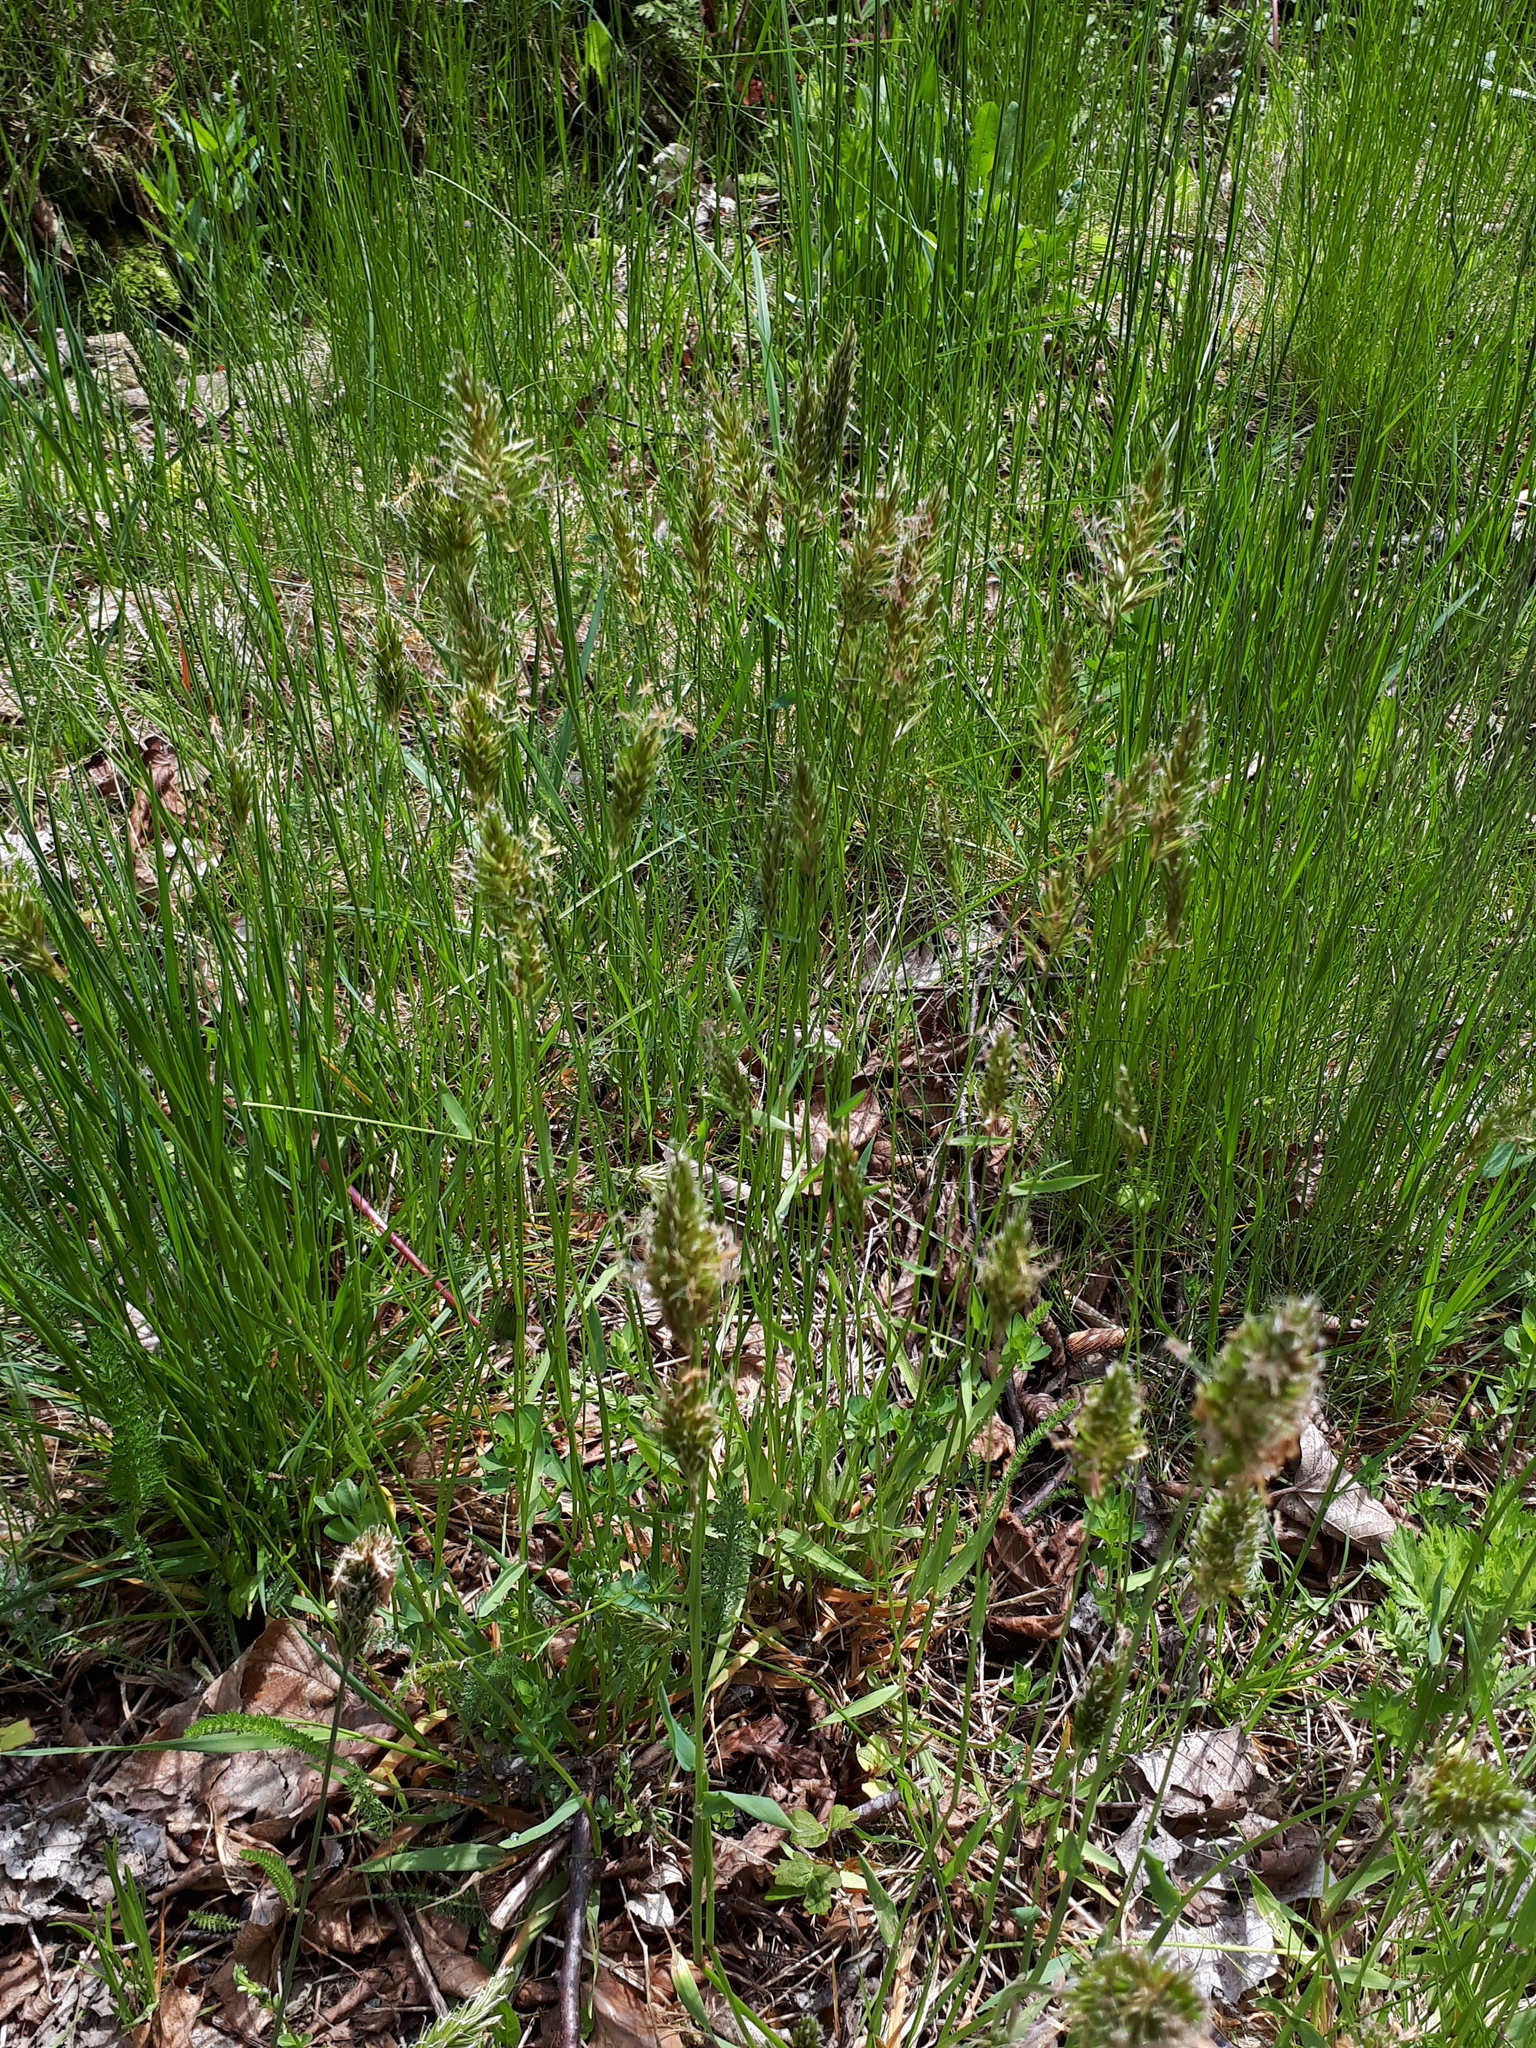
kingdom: Plantae
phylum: Tracheophyta
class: Liliopsida
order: Poales
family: Poaceae
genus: Anthoxanthum
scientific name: Anthoxanthum odoratum
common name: Sweet vernalgrass
